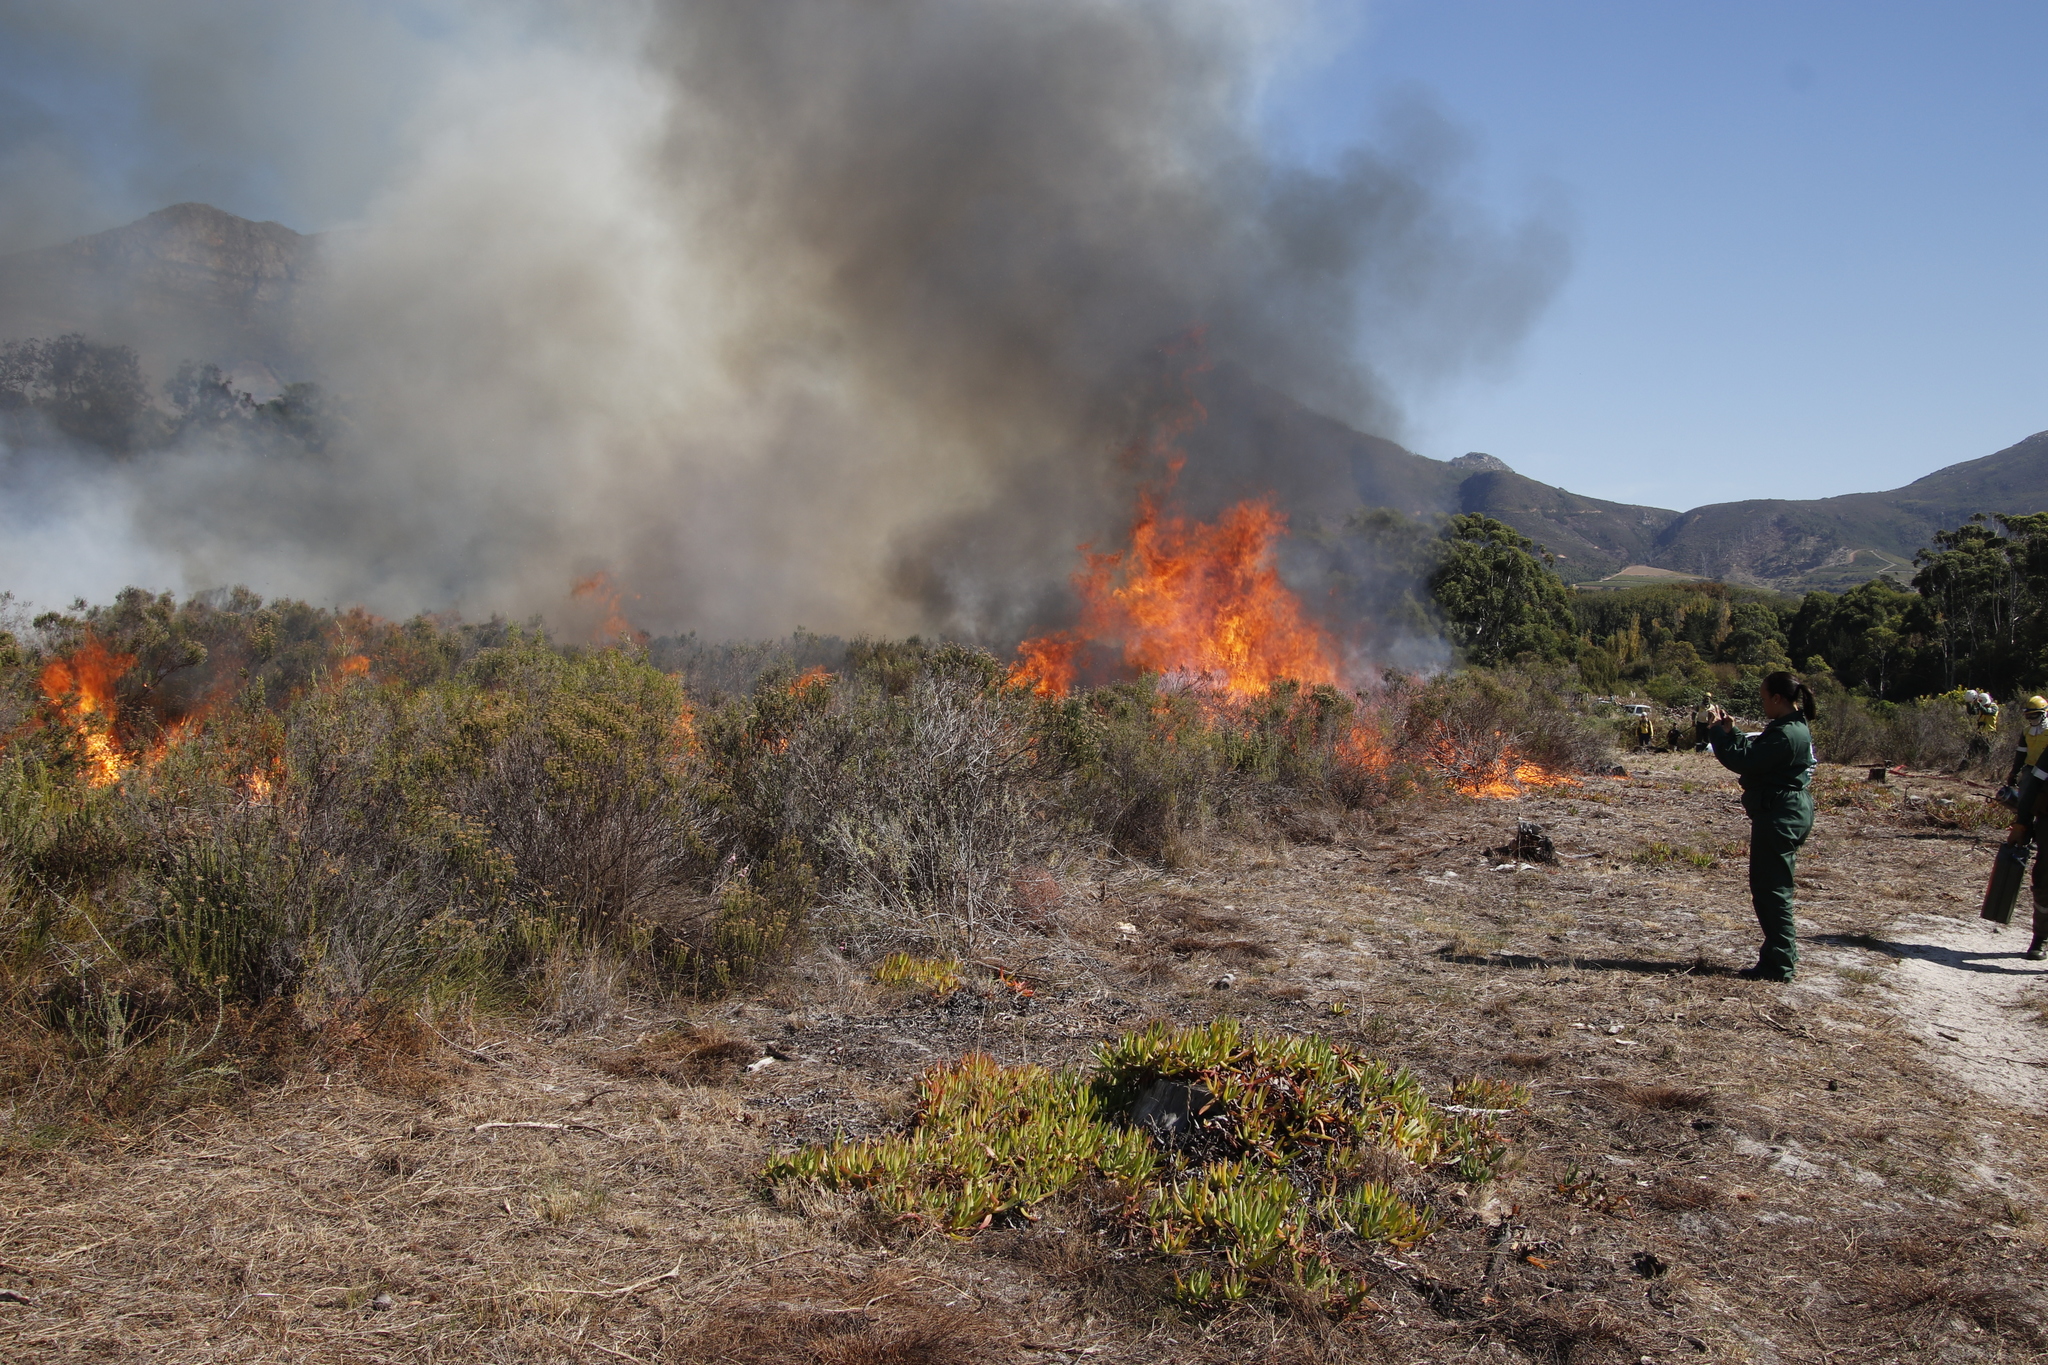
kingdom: Plantae
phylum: Tracheophyta
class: Magnoliopsida
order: Caryophyllales
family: Aizoaceae
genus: Carpobrotus
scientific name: Carpobrotus edulis
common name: Hottentot-fig
